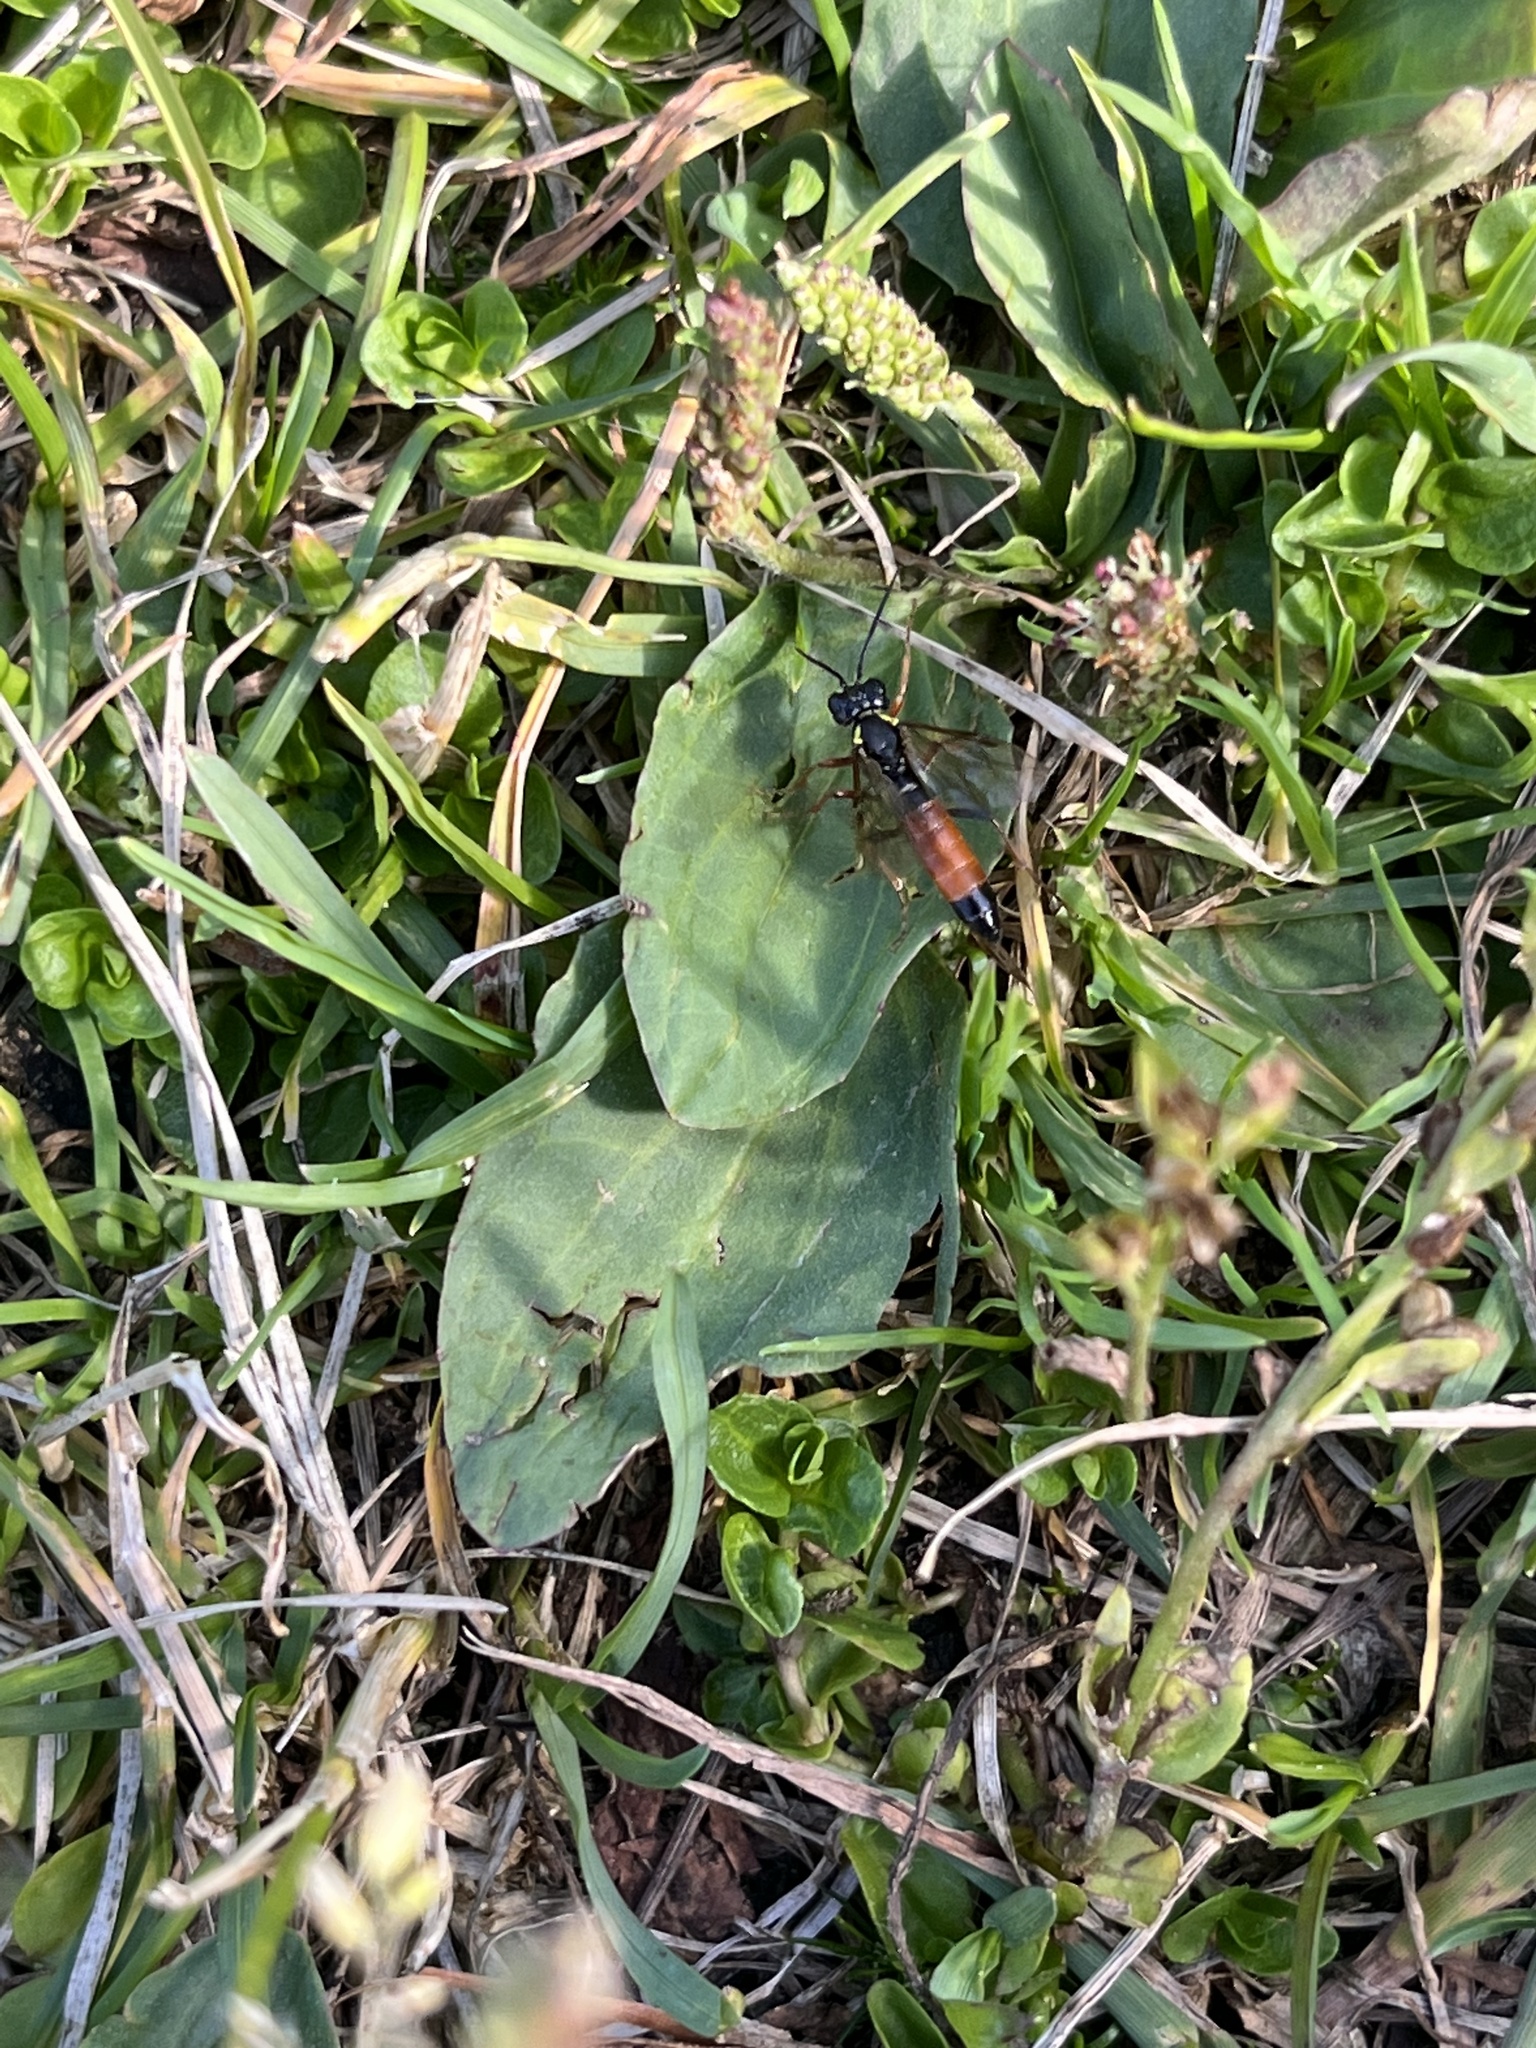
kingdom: Animalia
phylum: Arthropoda
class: Insecta
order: Hymenoptera
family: Tenthredinidae
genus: Tenthredo
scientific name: Tenthredo moniliata
